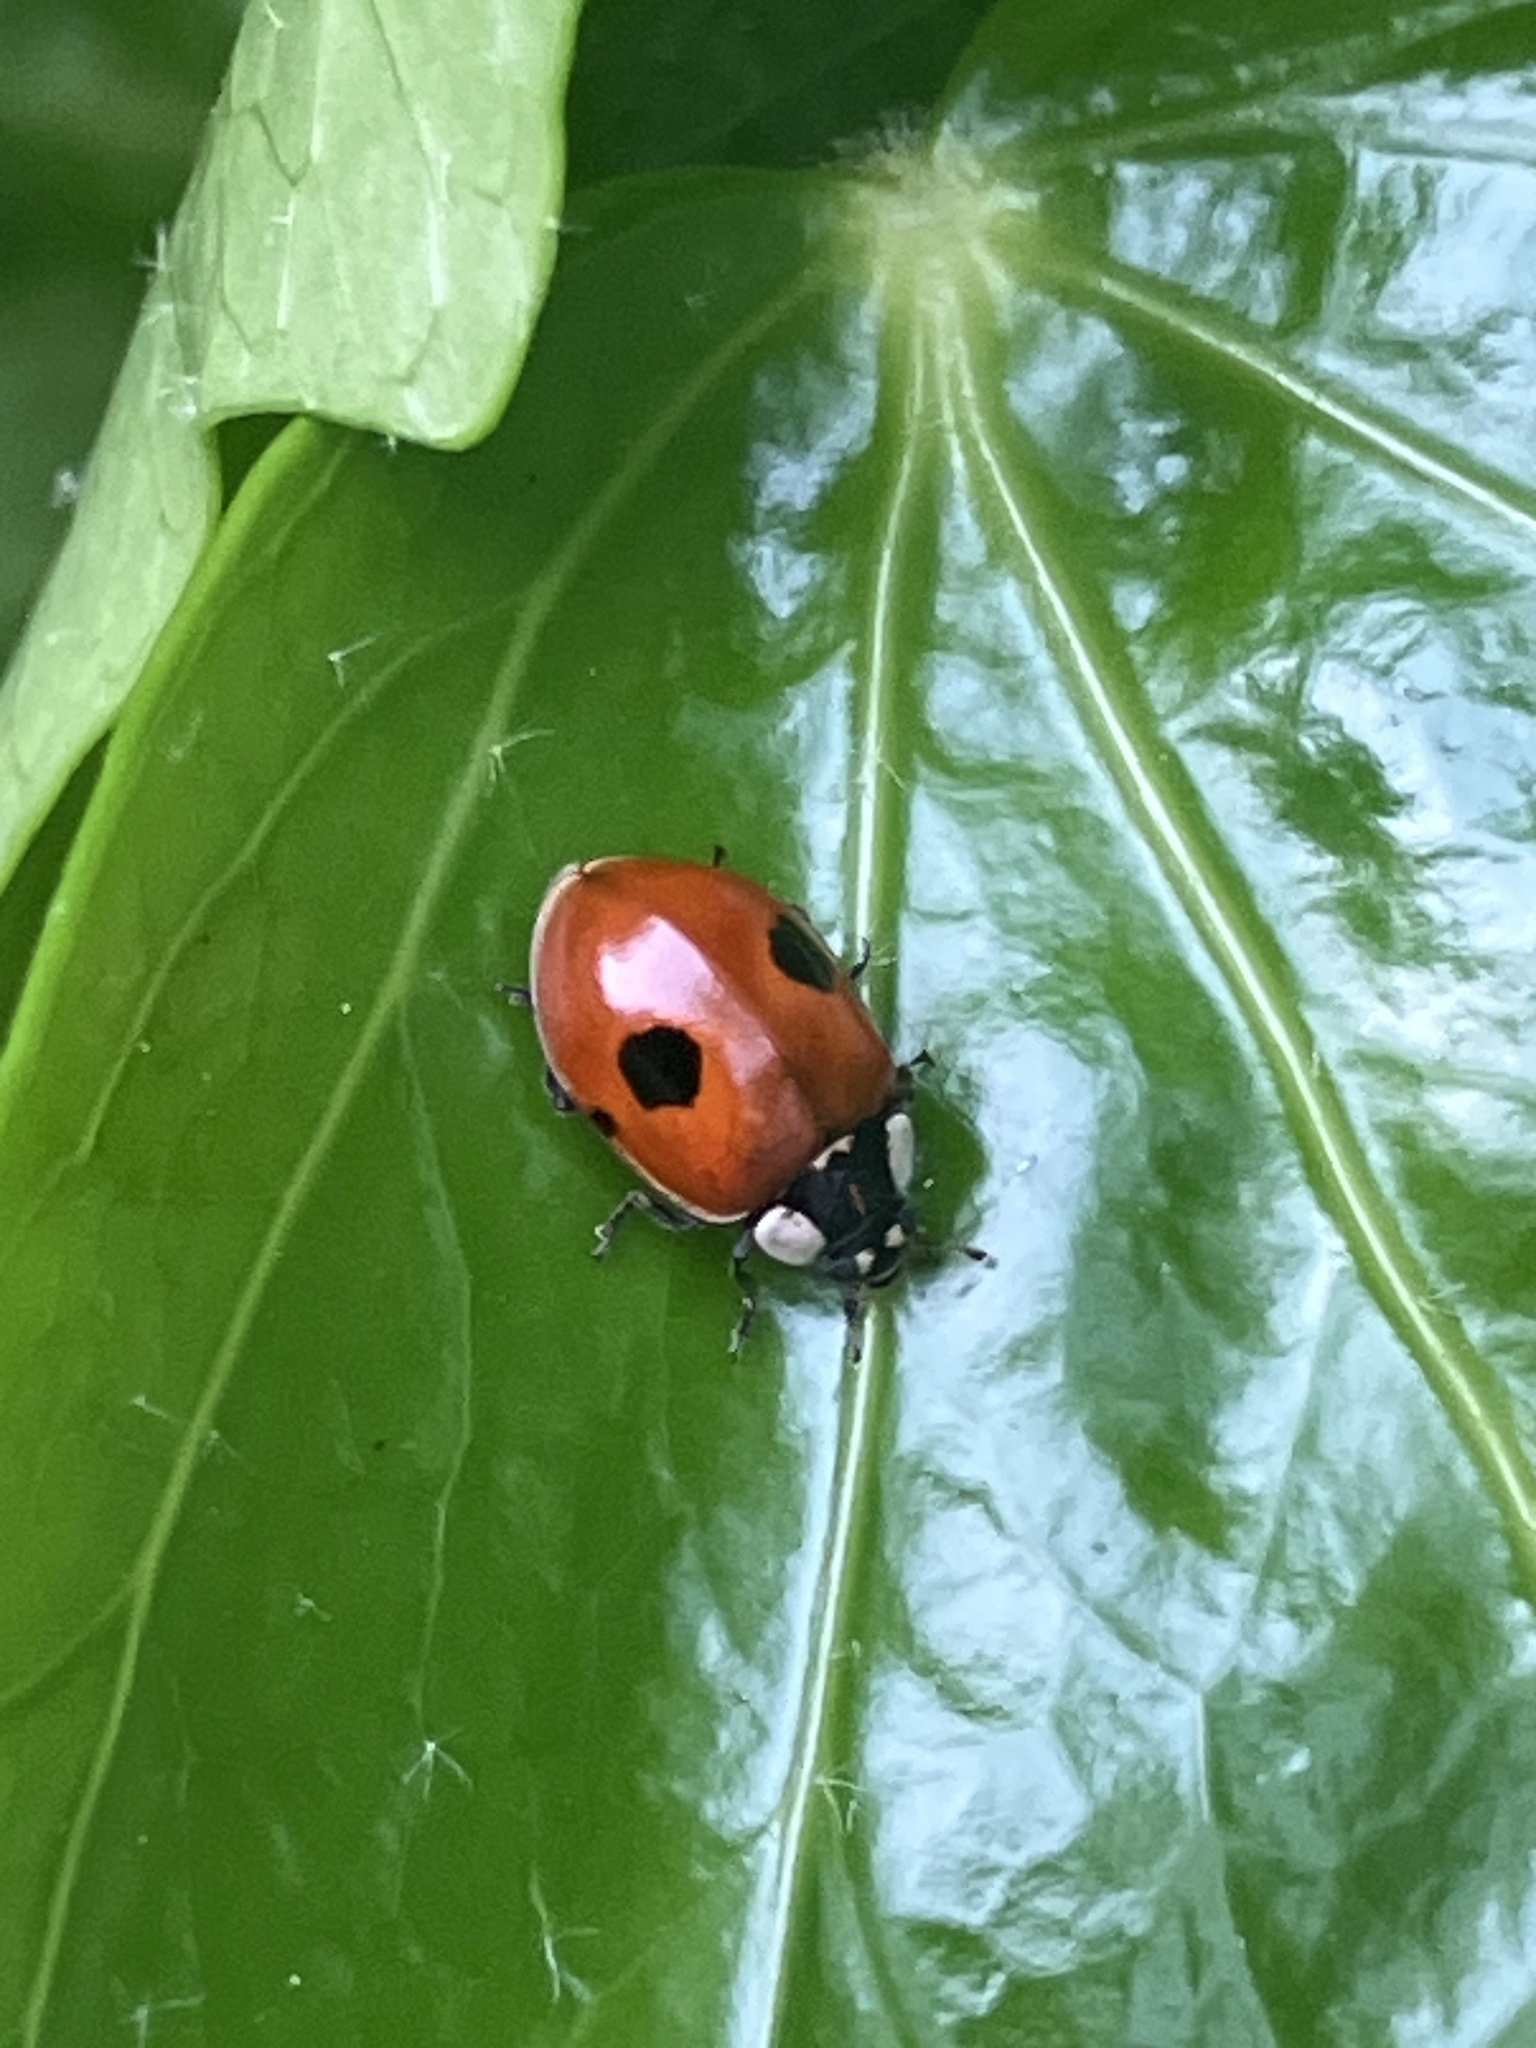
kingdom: Animalia
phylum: Arthropoda
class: Insecta
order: Coleoptera
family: Coccinellidae
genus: Adalia
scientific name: Adalia bipunctata
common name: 2-spot ladybird
